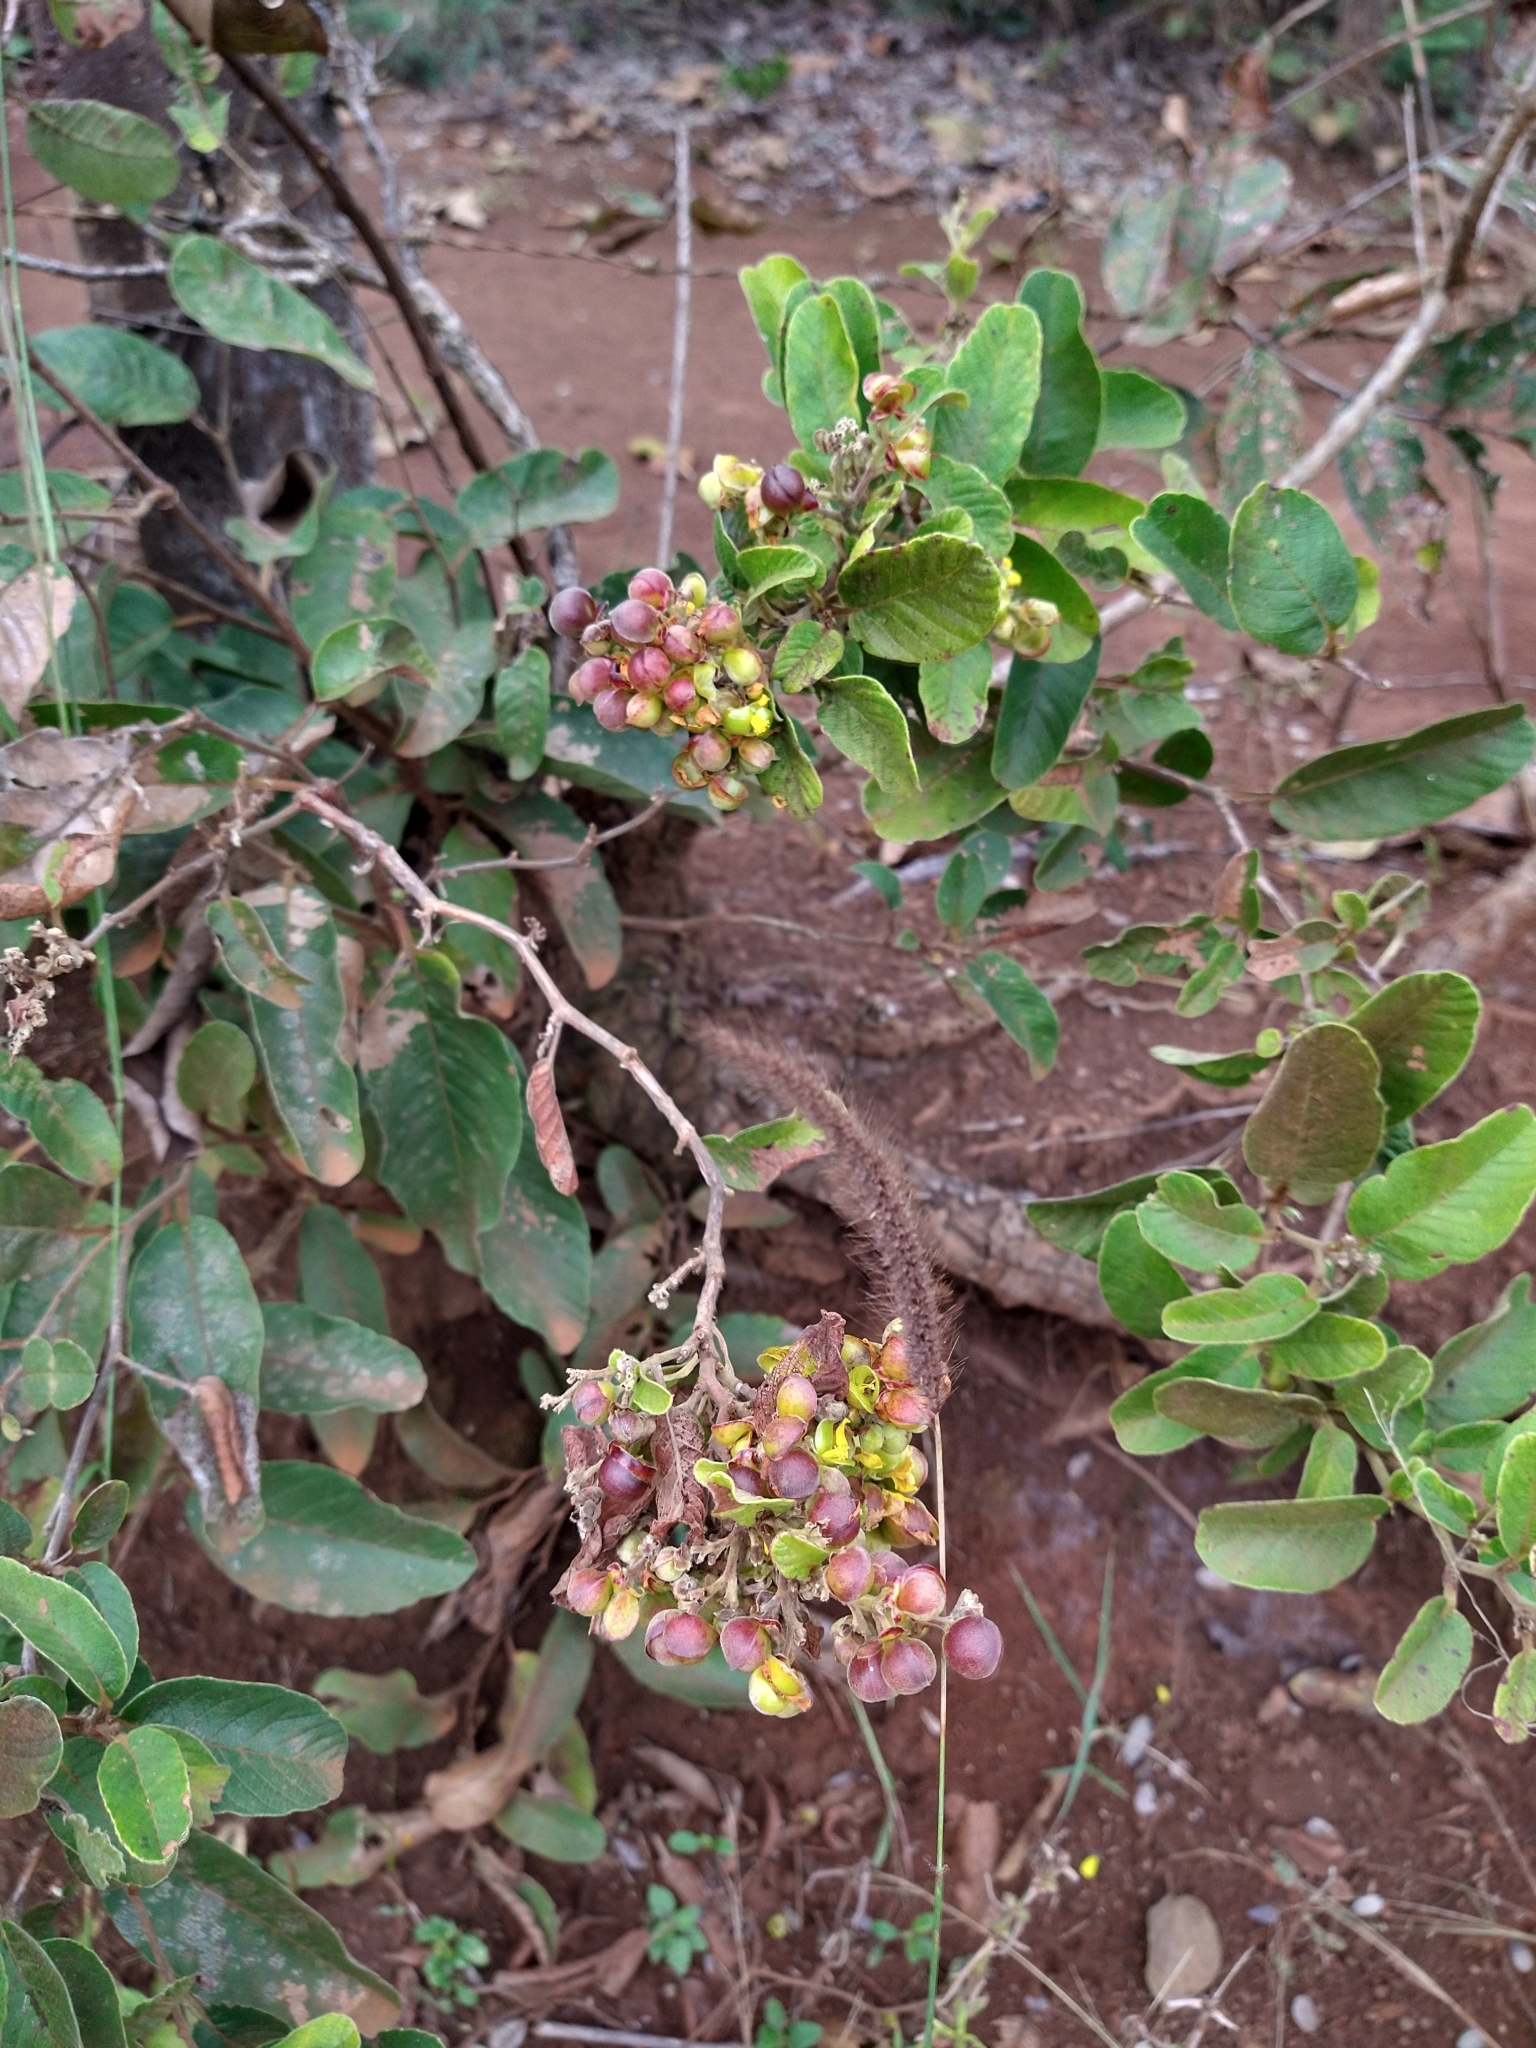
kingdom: Plantae
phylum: Tracheophyta
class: Magnoliopsida
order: Dilleniales
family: Dilleniaceae
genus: Davilla
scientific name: Davilla elliptica
